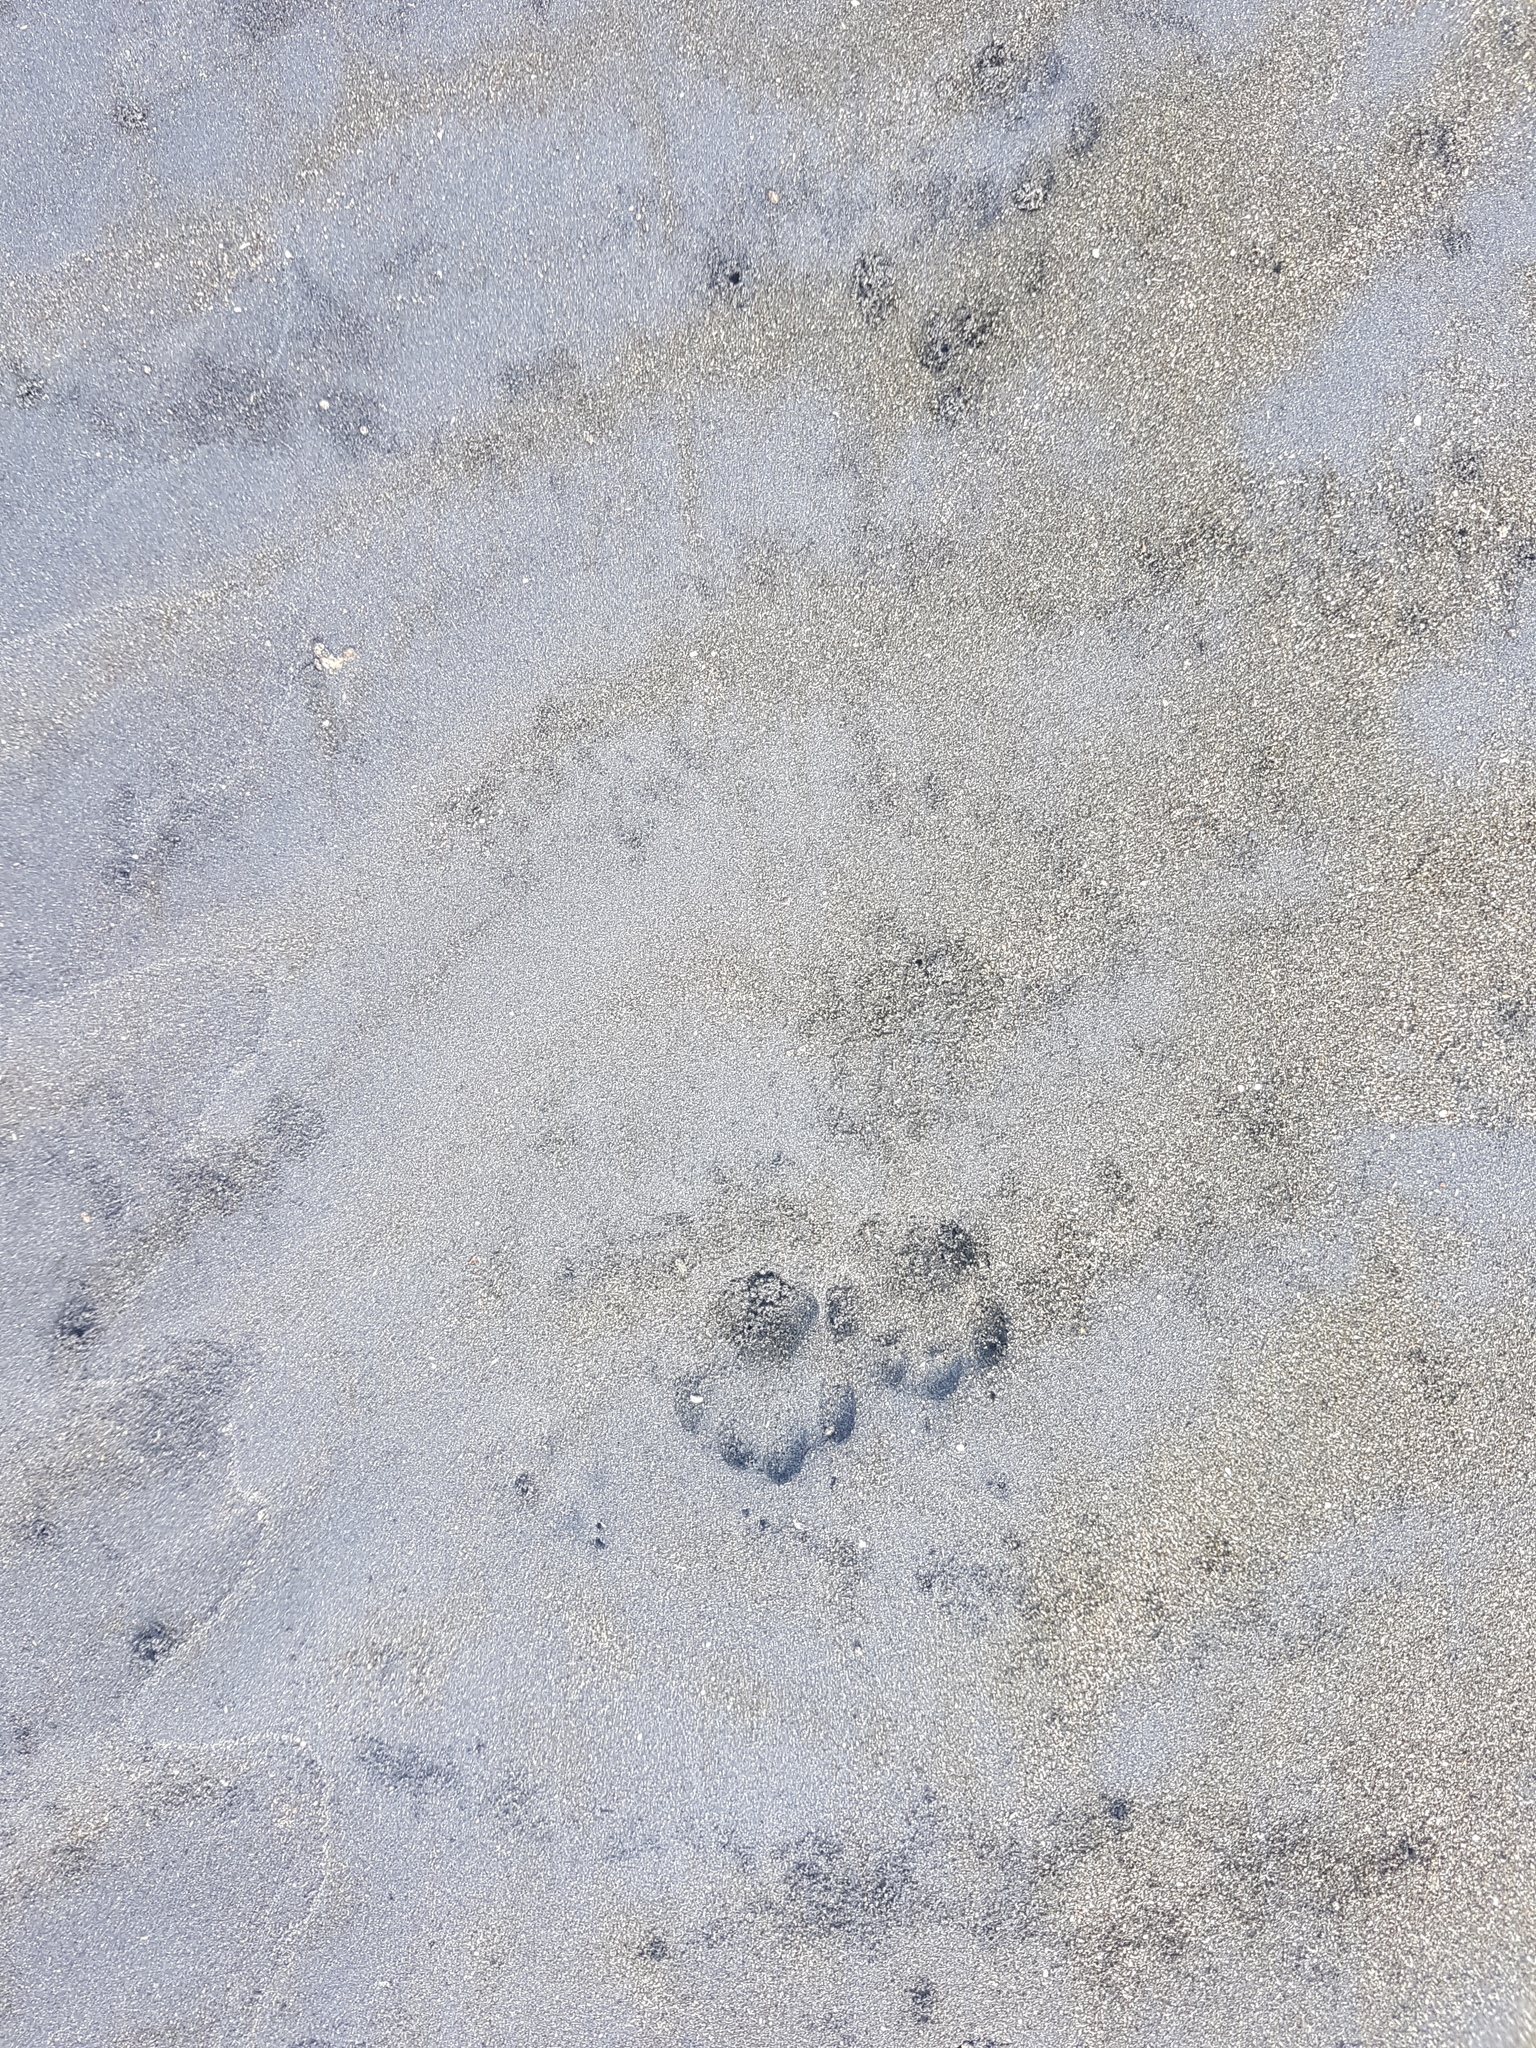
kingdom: Animalia
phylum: Chordata
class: Mammalia
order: Carnivora
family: Felidae
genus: Felis
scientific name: Felis catus
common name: Domestic cat
